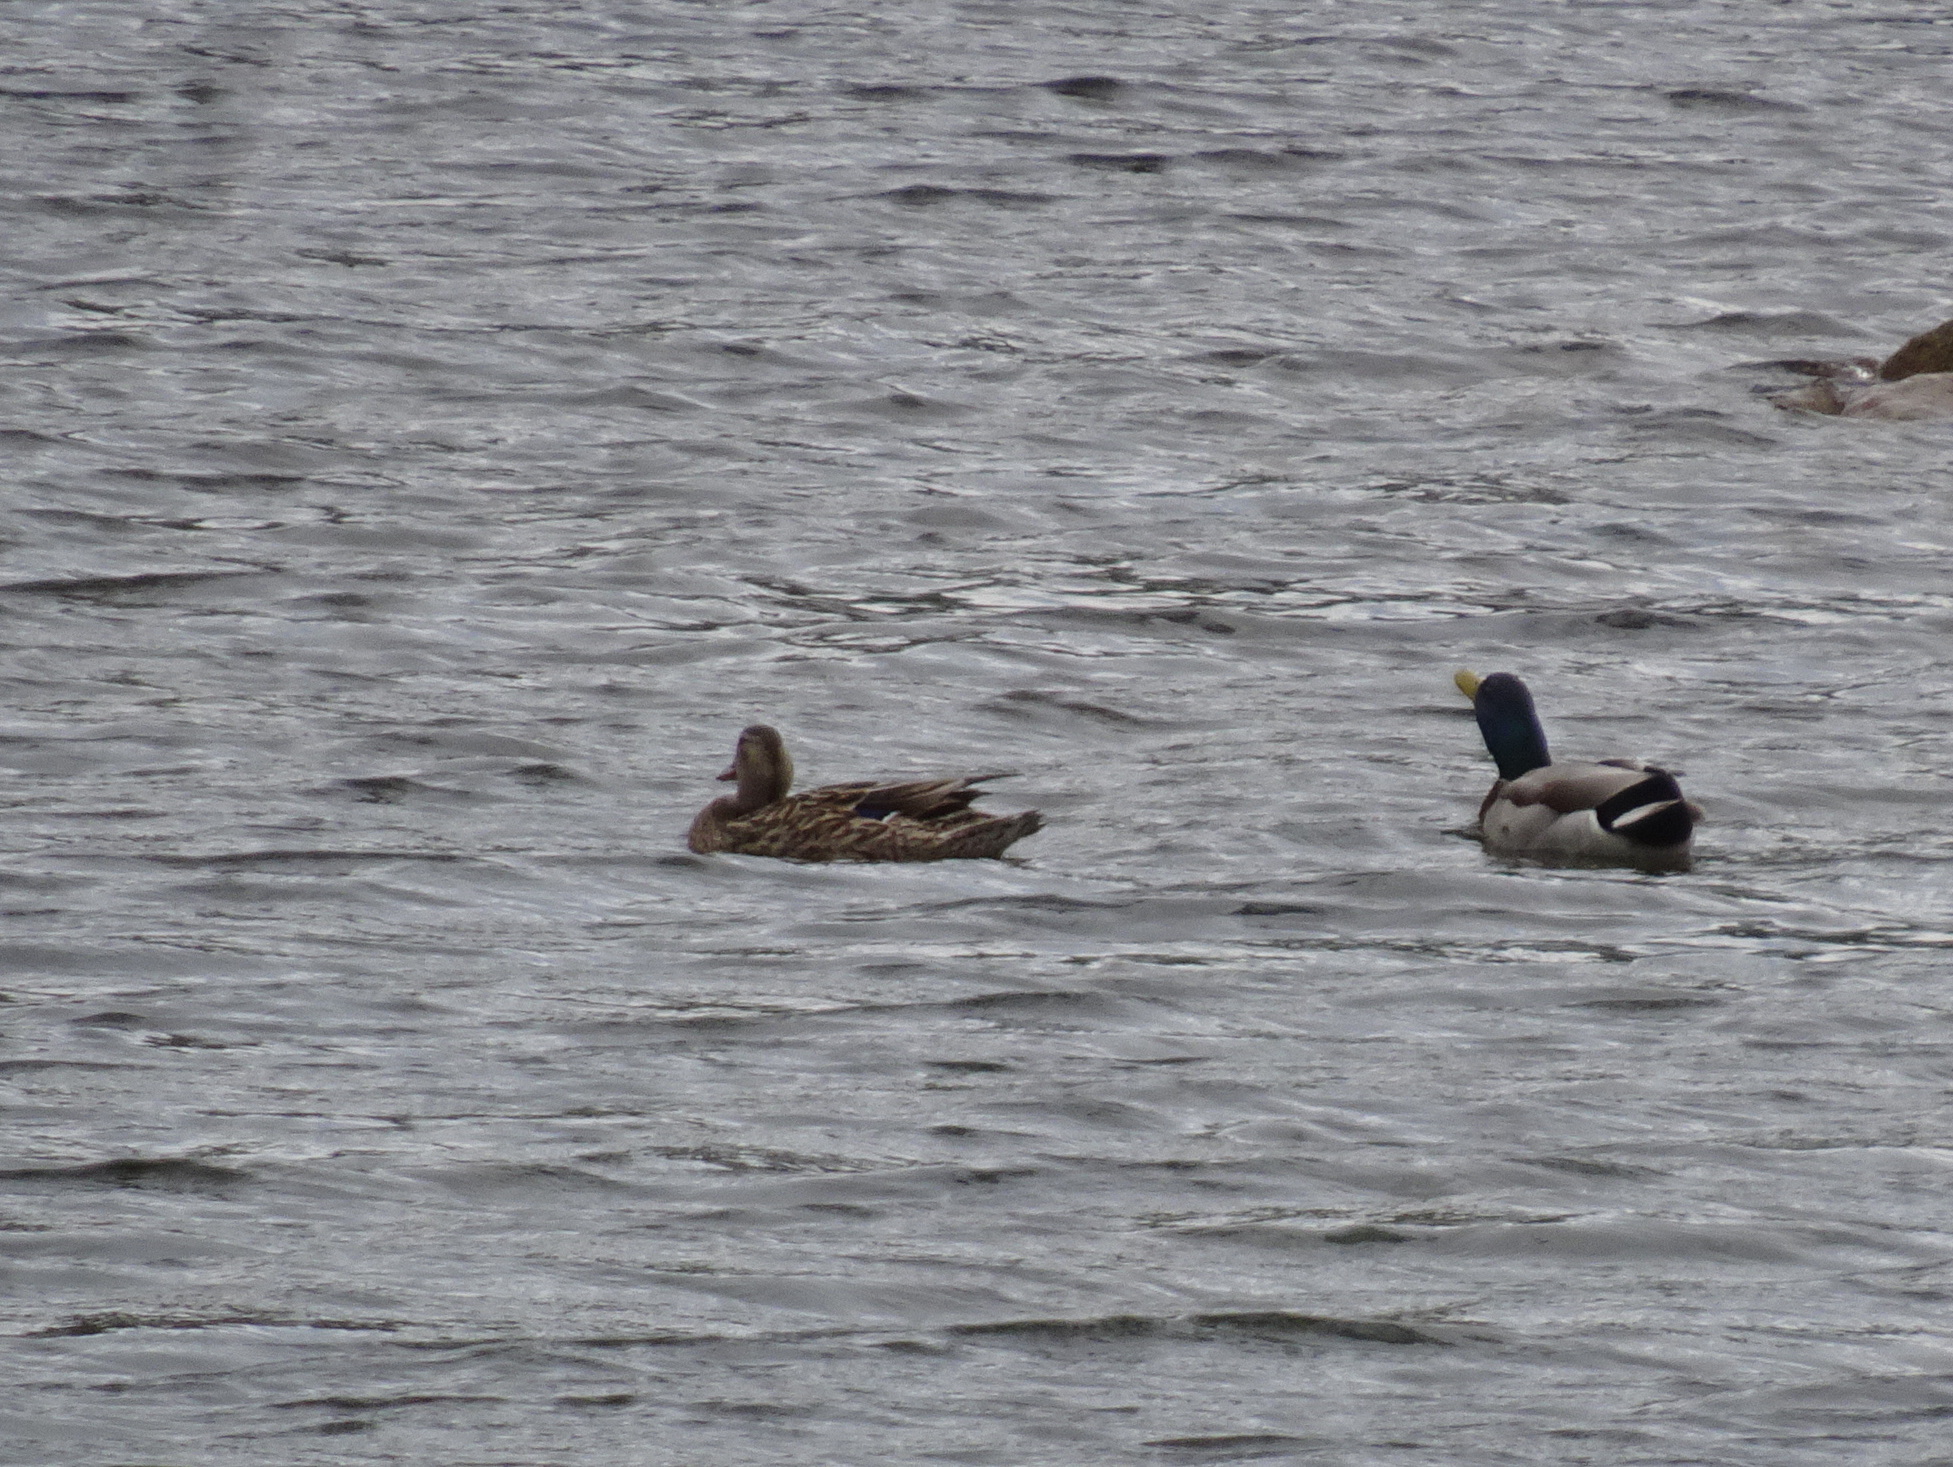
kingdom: Animalia
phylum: Chordata
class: Aves
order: Anseriformes
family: Anatidae
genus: Anas
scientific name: Anas platyrhynchos
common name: Mallard
